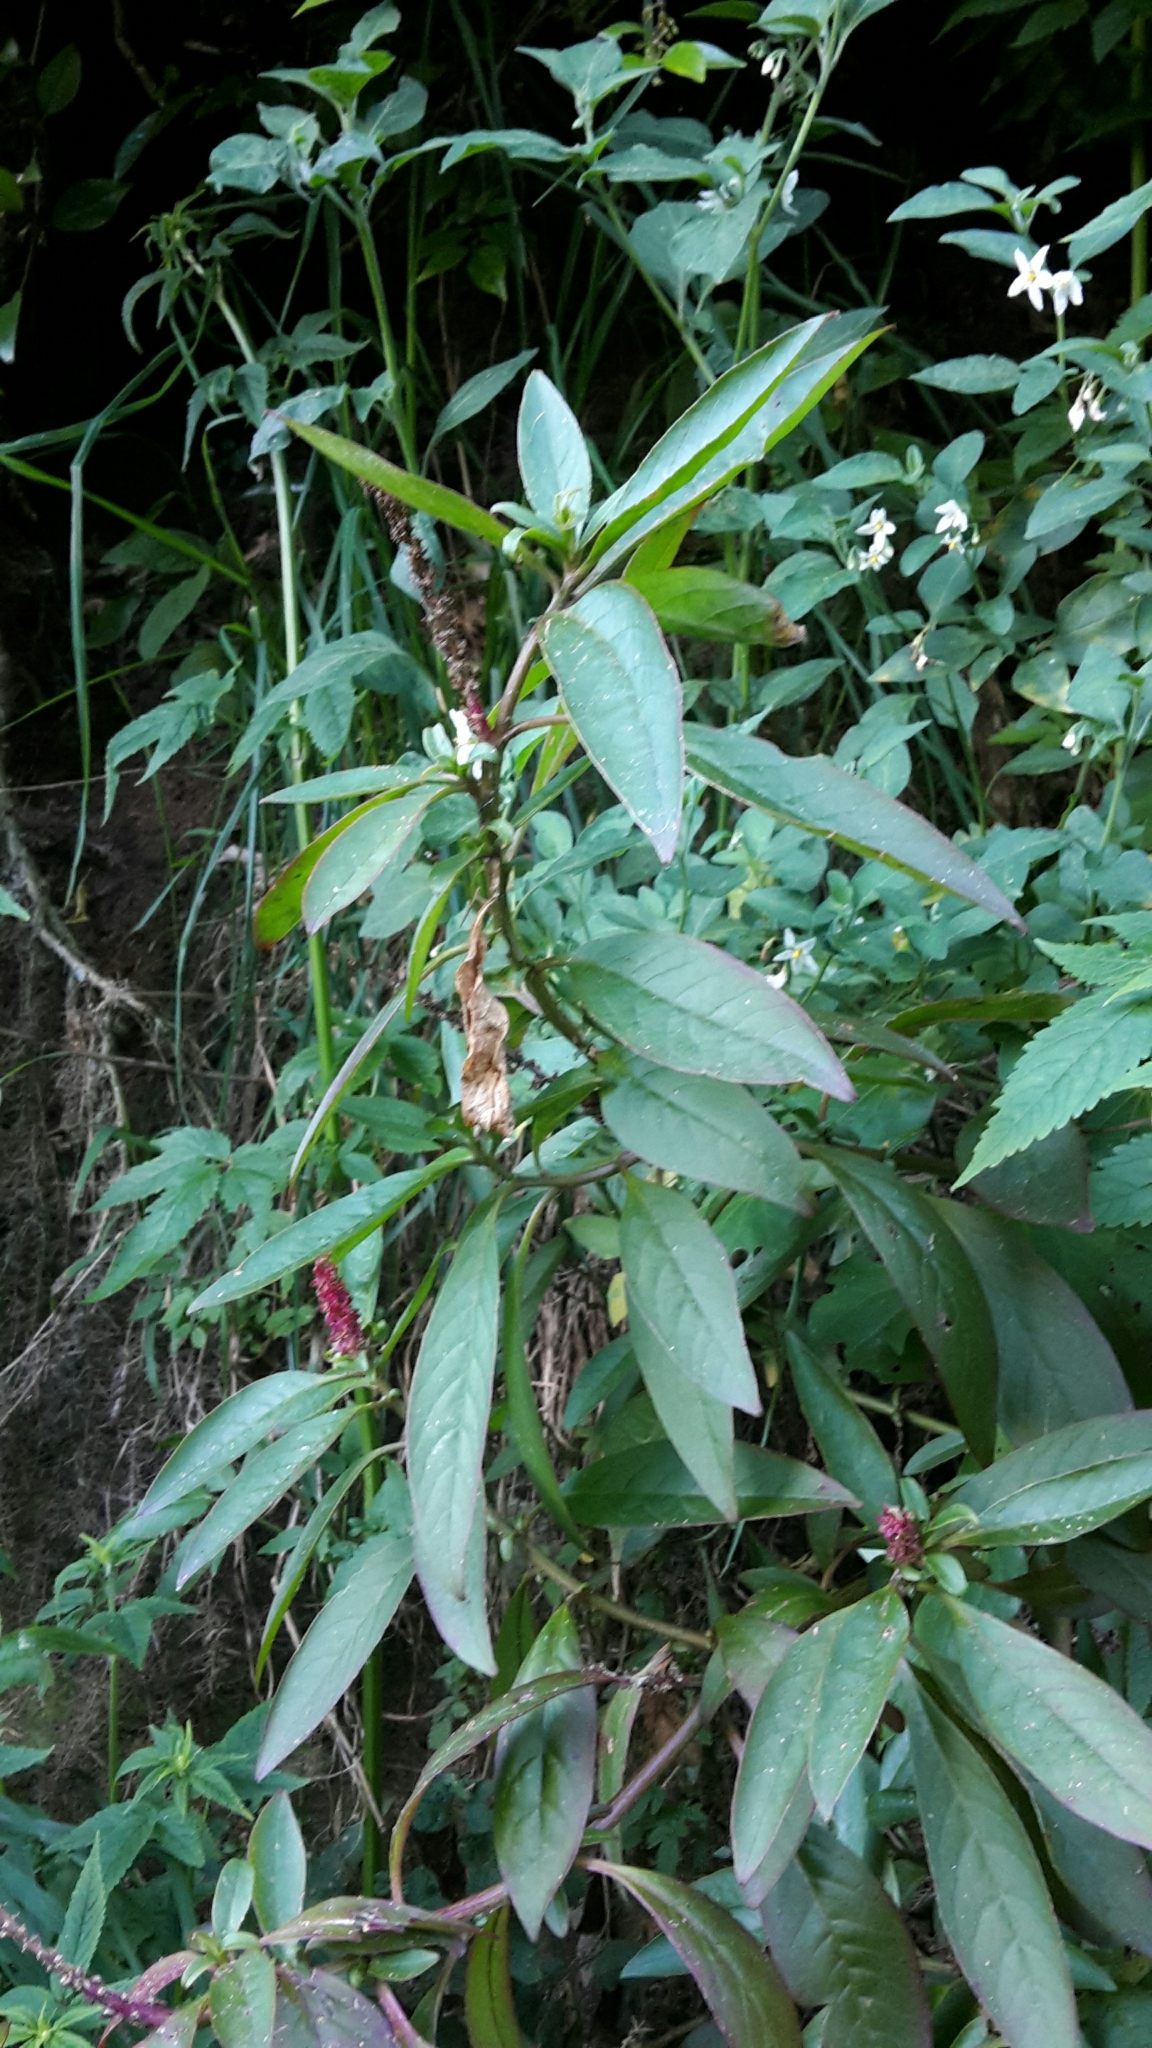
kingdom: Plantae
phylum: Tracheophyta
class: Magnoliopsida
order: Caryophyllales
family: Phytolaccaceae
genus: Phytolacca
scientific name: Phytolacca icosandra
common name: Button pokeweed
